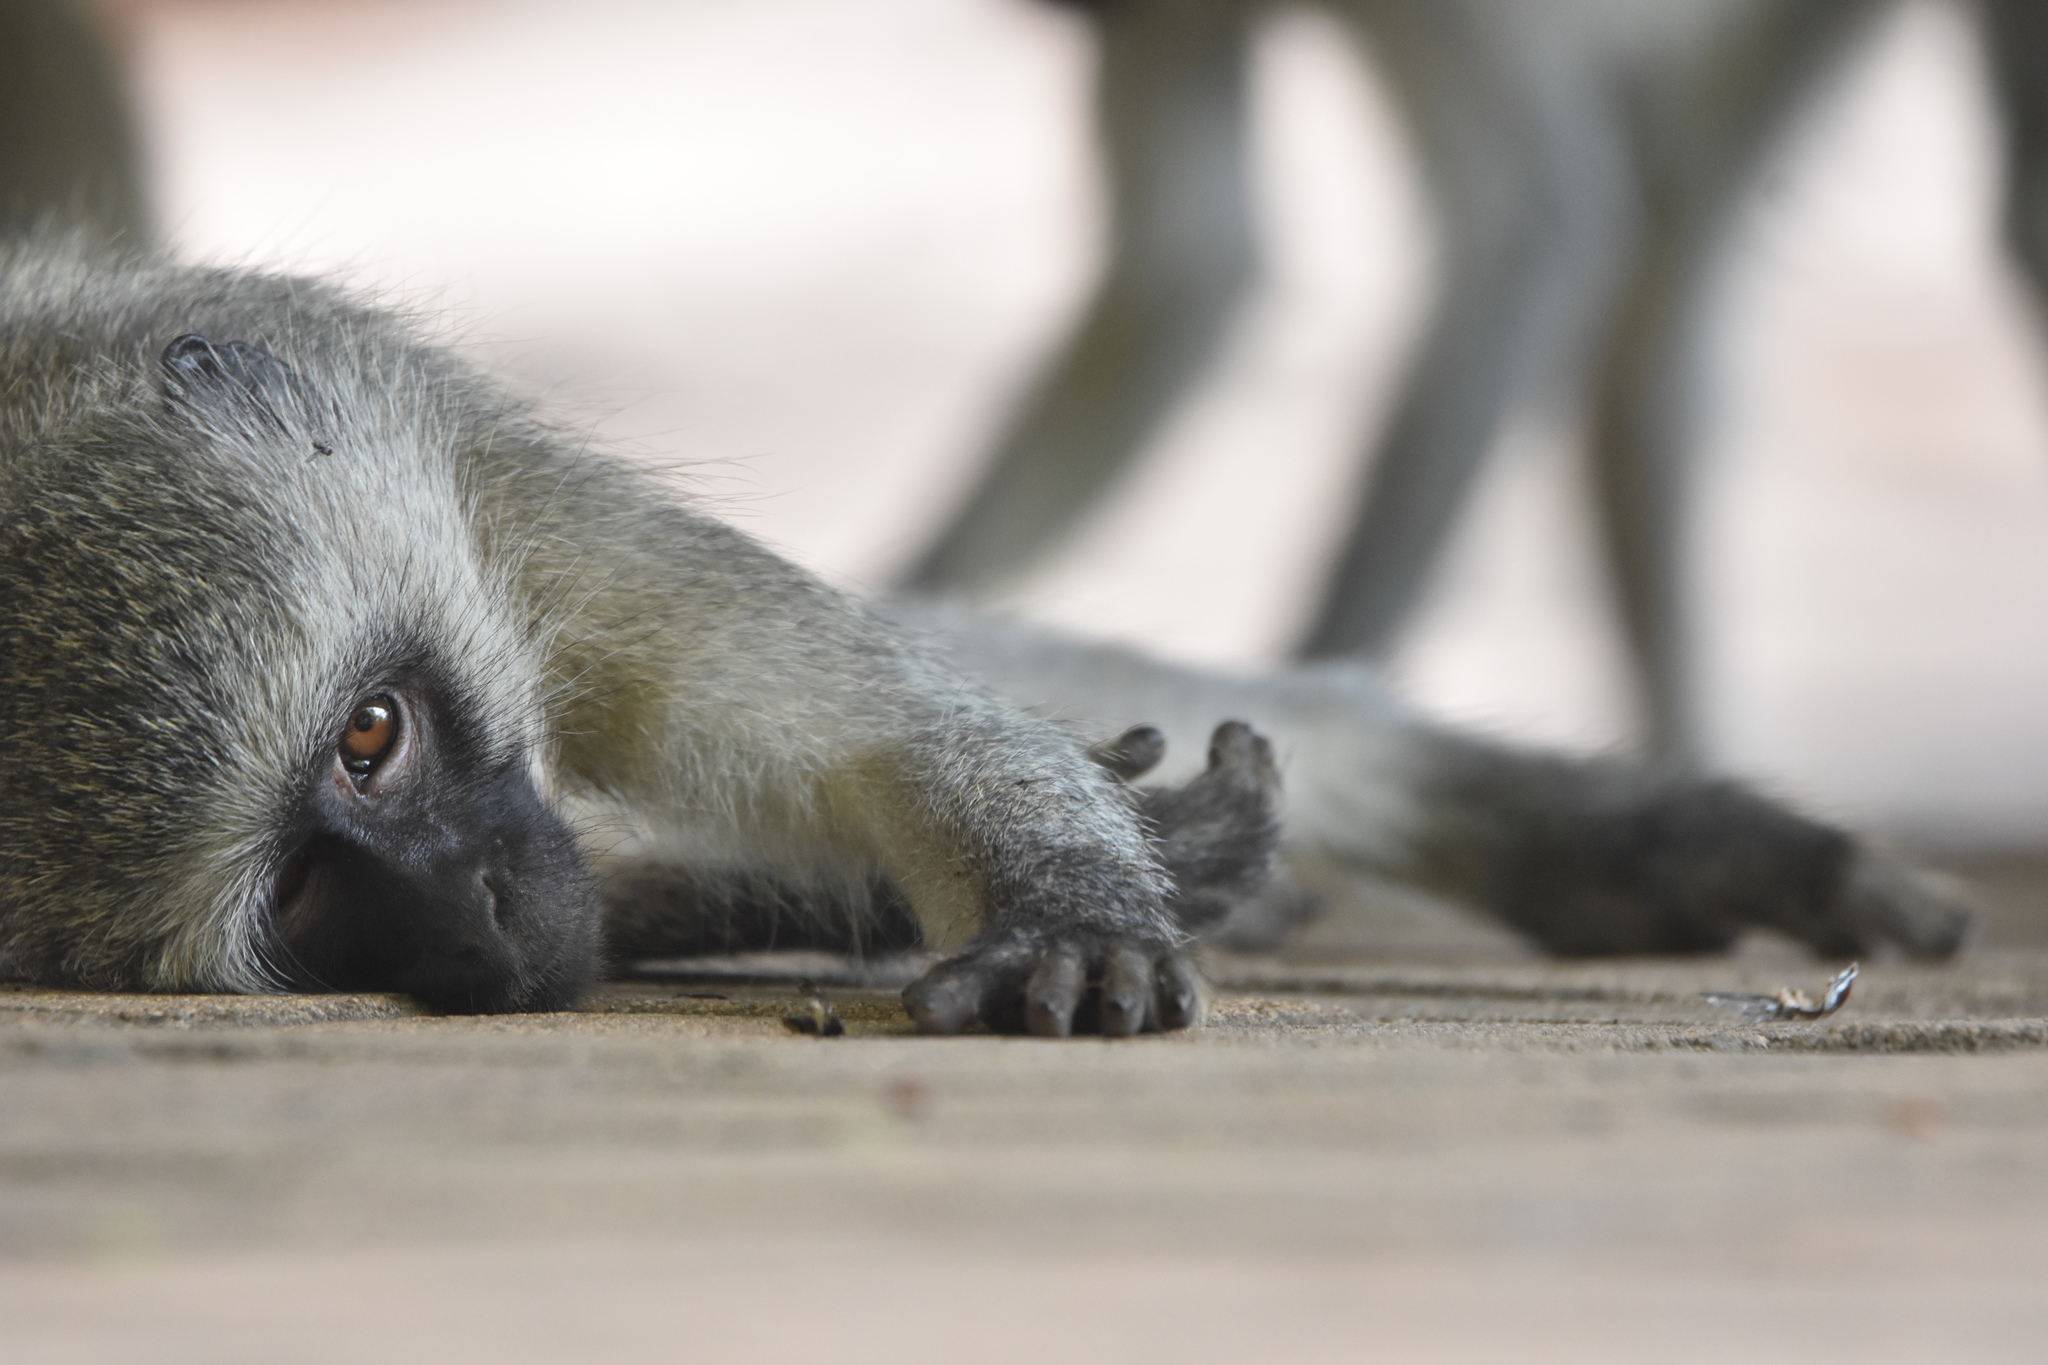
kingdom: Animalia
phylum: Chordata
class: Mammalia
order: Primates
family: Cercopithecidae
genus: Chlorocebus
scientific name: Chlorocebus pygerythrus
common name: Vervet monkey
